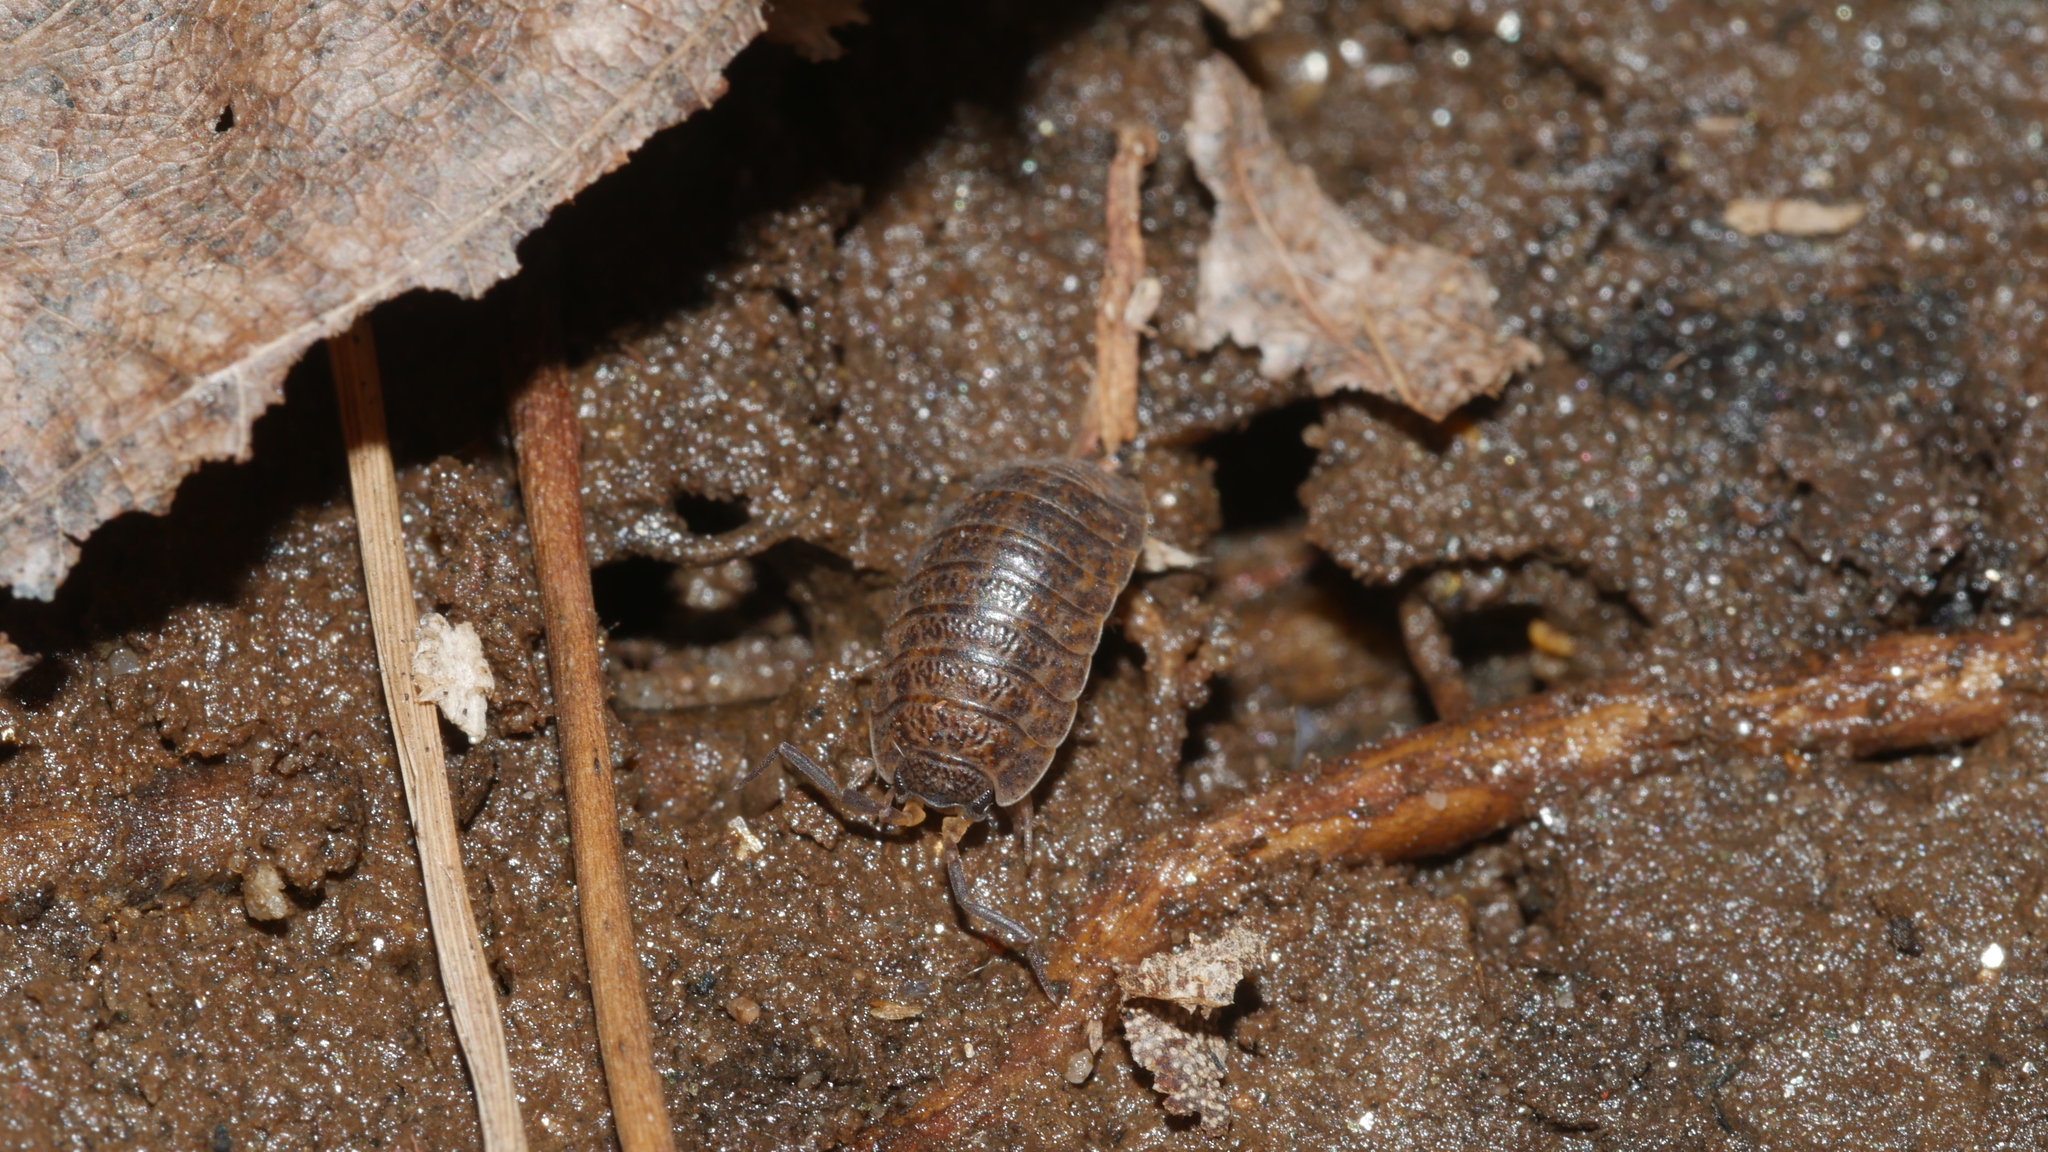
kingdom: Animalia
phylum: Arthropoda
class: Malacostraca
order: Isopoda
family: Trachelipodidae
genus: Trachelipus
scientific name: Trachelipus rathkii
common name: Isopod
